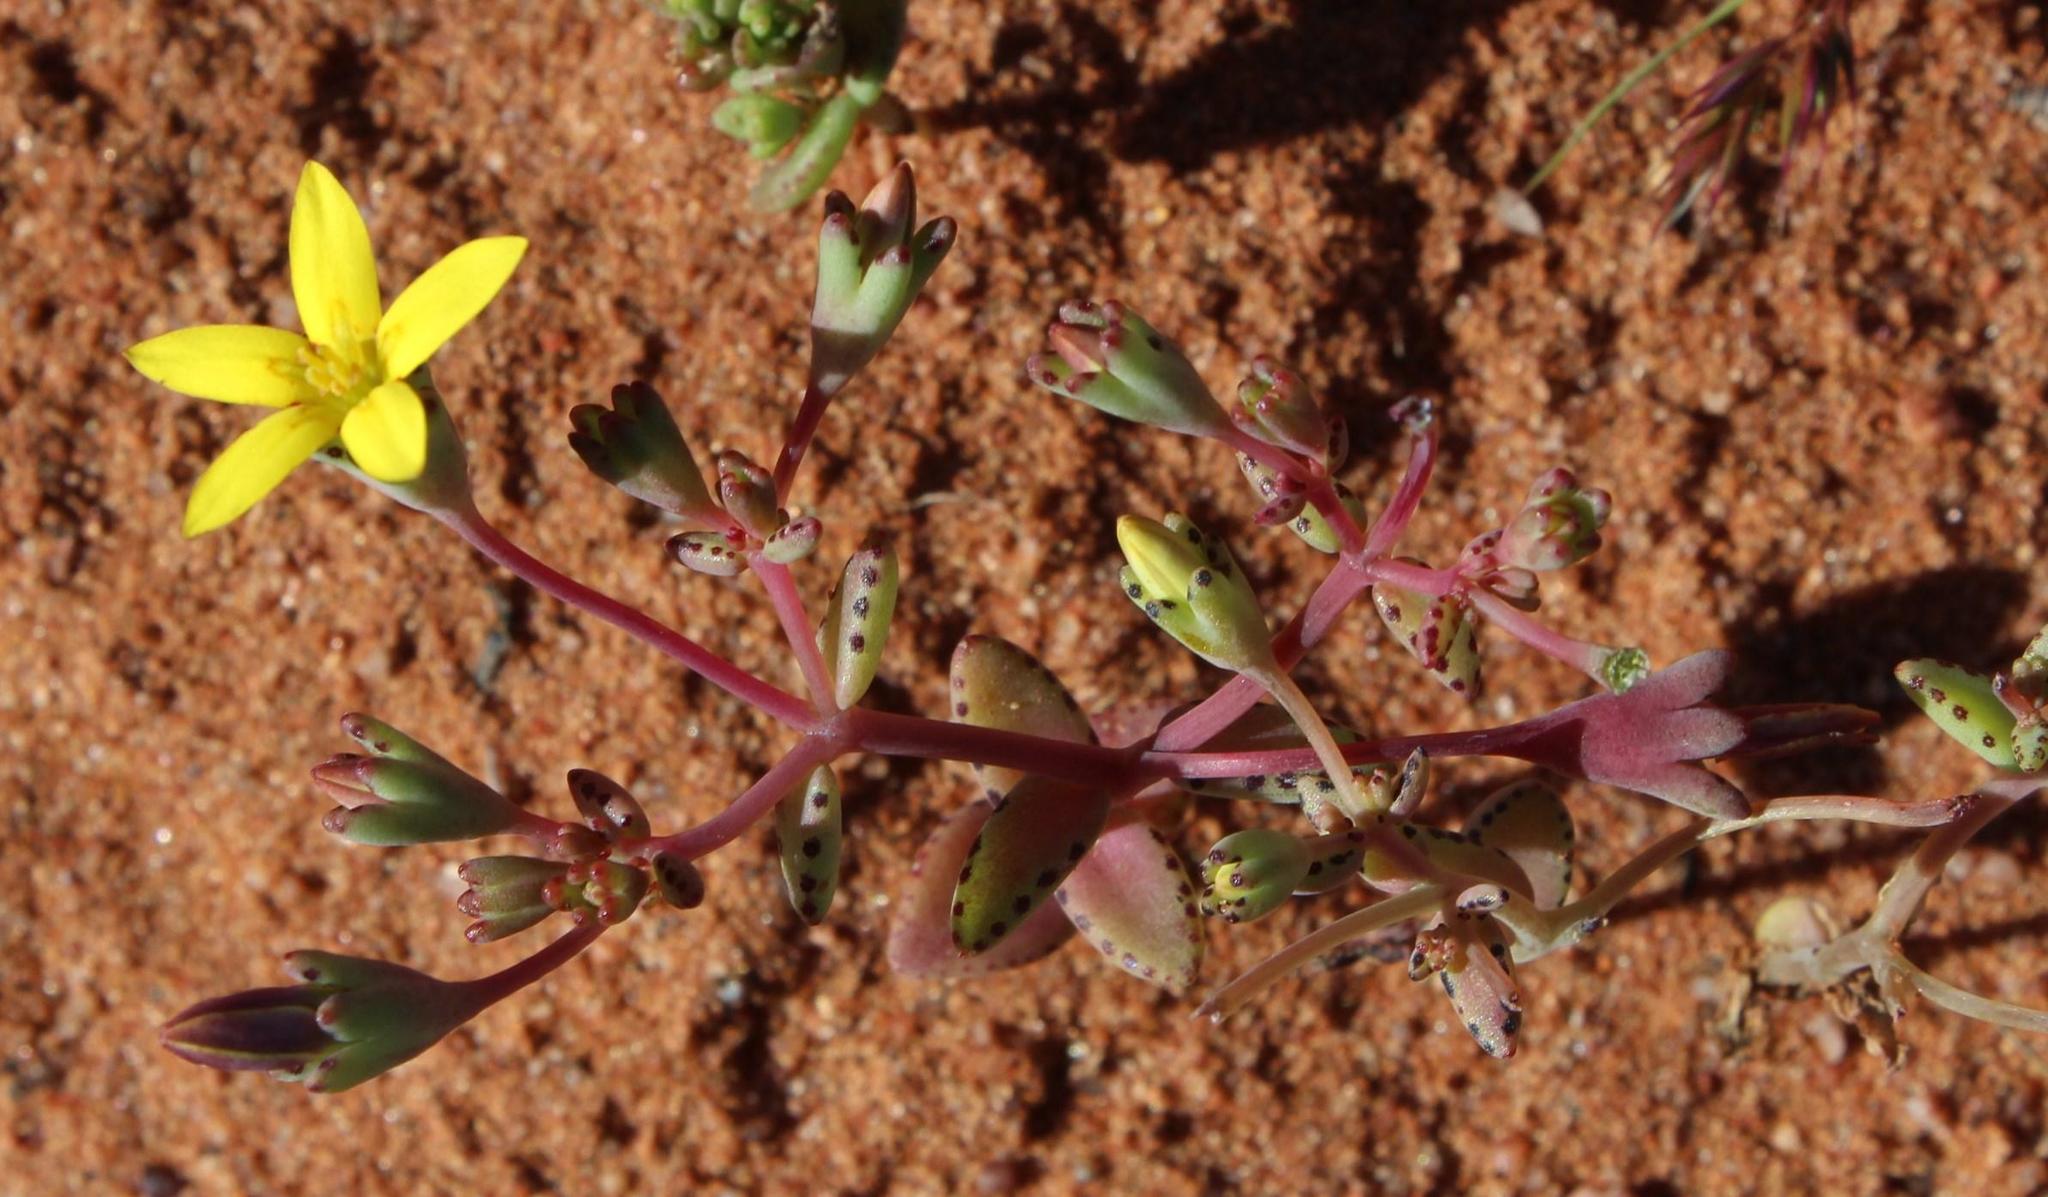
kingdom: Plantae
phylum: Tracheophyta
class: Magnoliopsida
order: Saxifragales
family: Crassulaceae
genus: Crassula
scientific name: Crassula dichotoma
